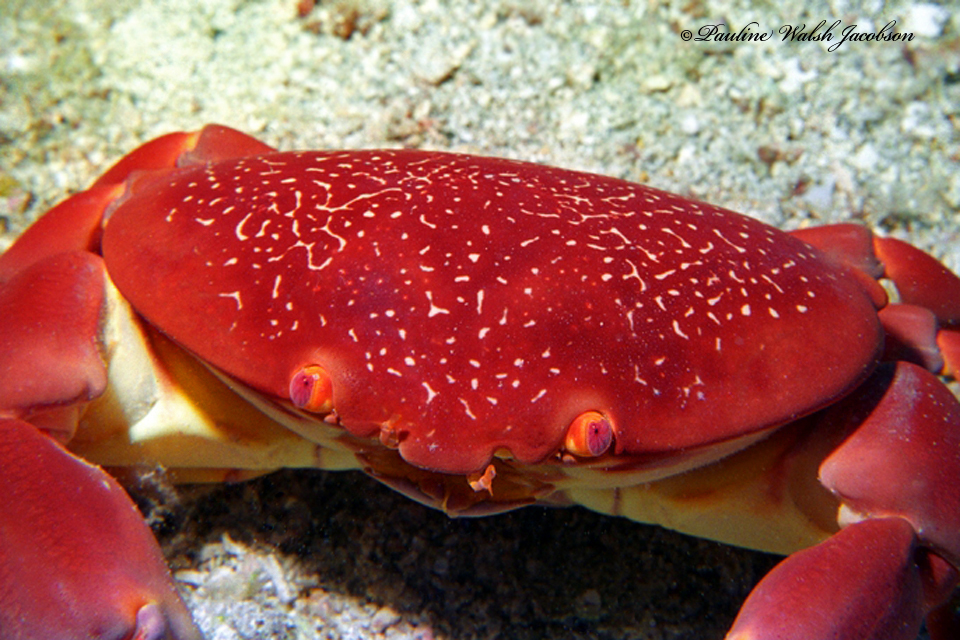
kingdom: Animalia
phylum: Arthropoda
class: Malacostraca
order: Decapoda
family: Carpiliidae
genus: Carpilius
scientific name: Carpilius corallinus
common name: Batwing coral crab
